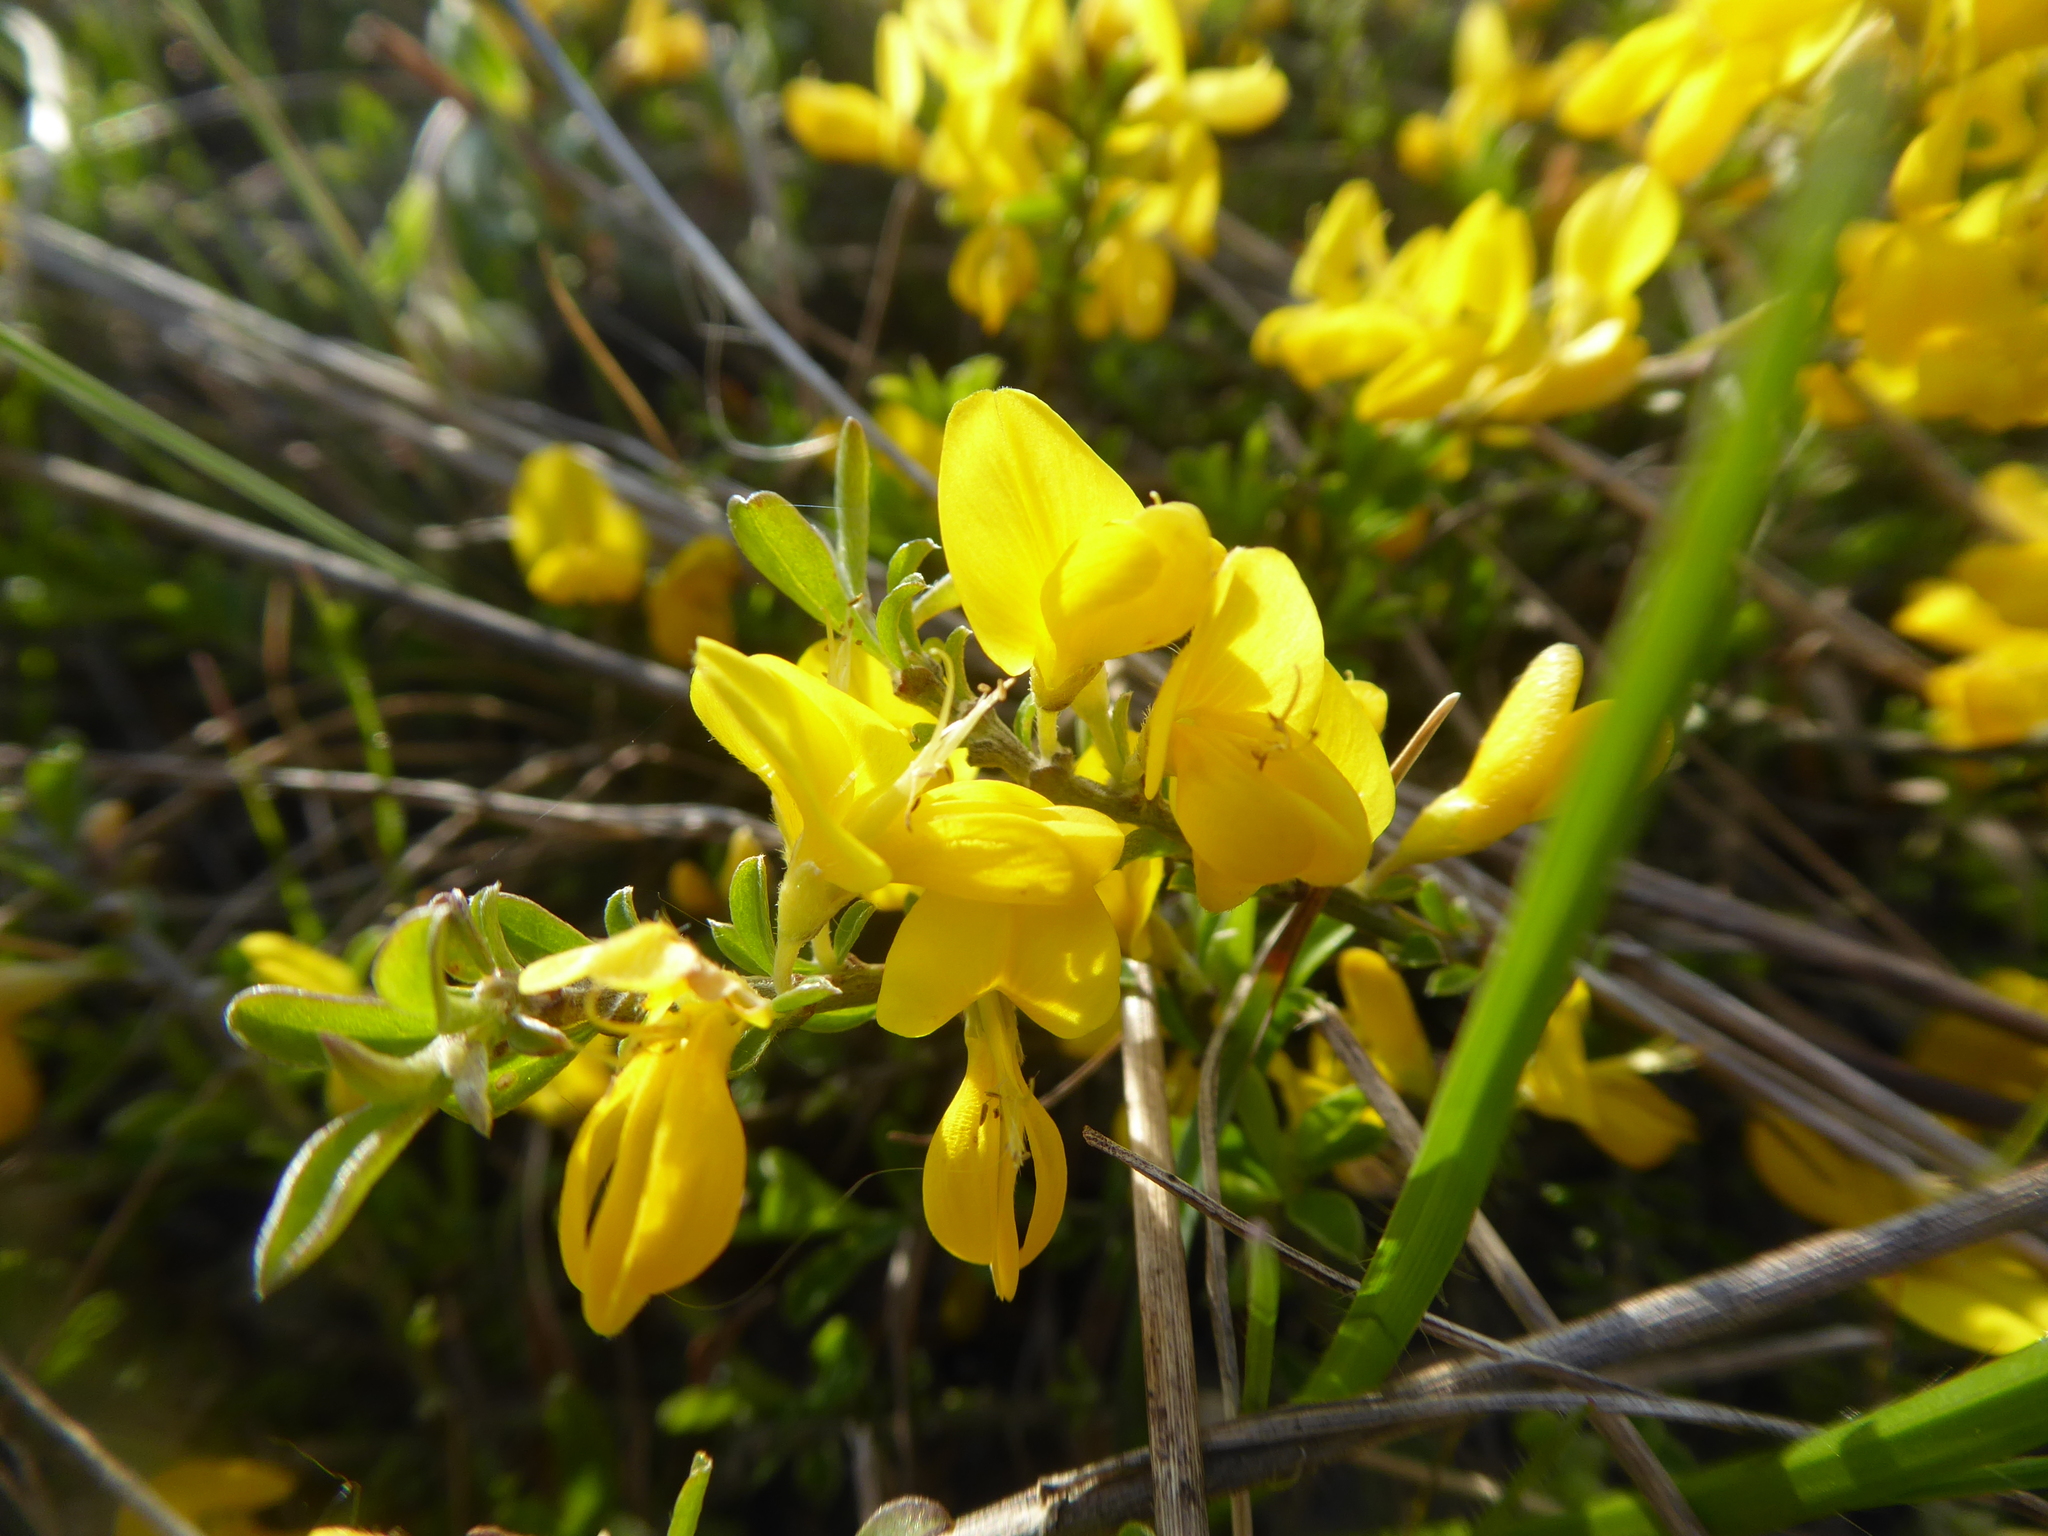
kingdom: Plantae
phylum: Tracheophyta
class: Magnoliopsida
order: Fabales
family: Fabaceae
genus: Genista
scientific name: Genista pilosa
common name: Hairy greenweed
